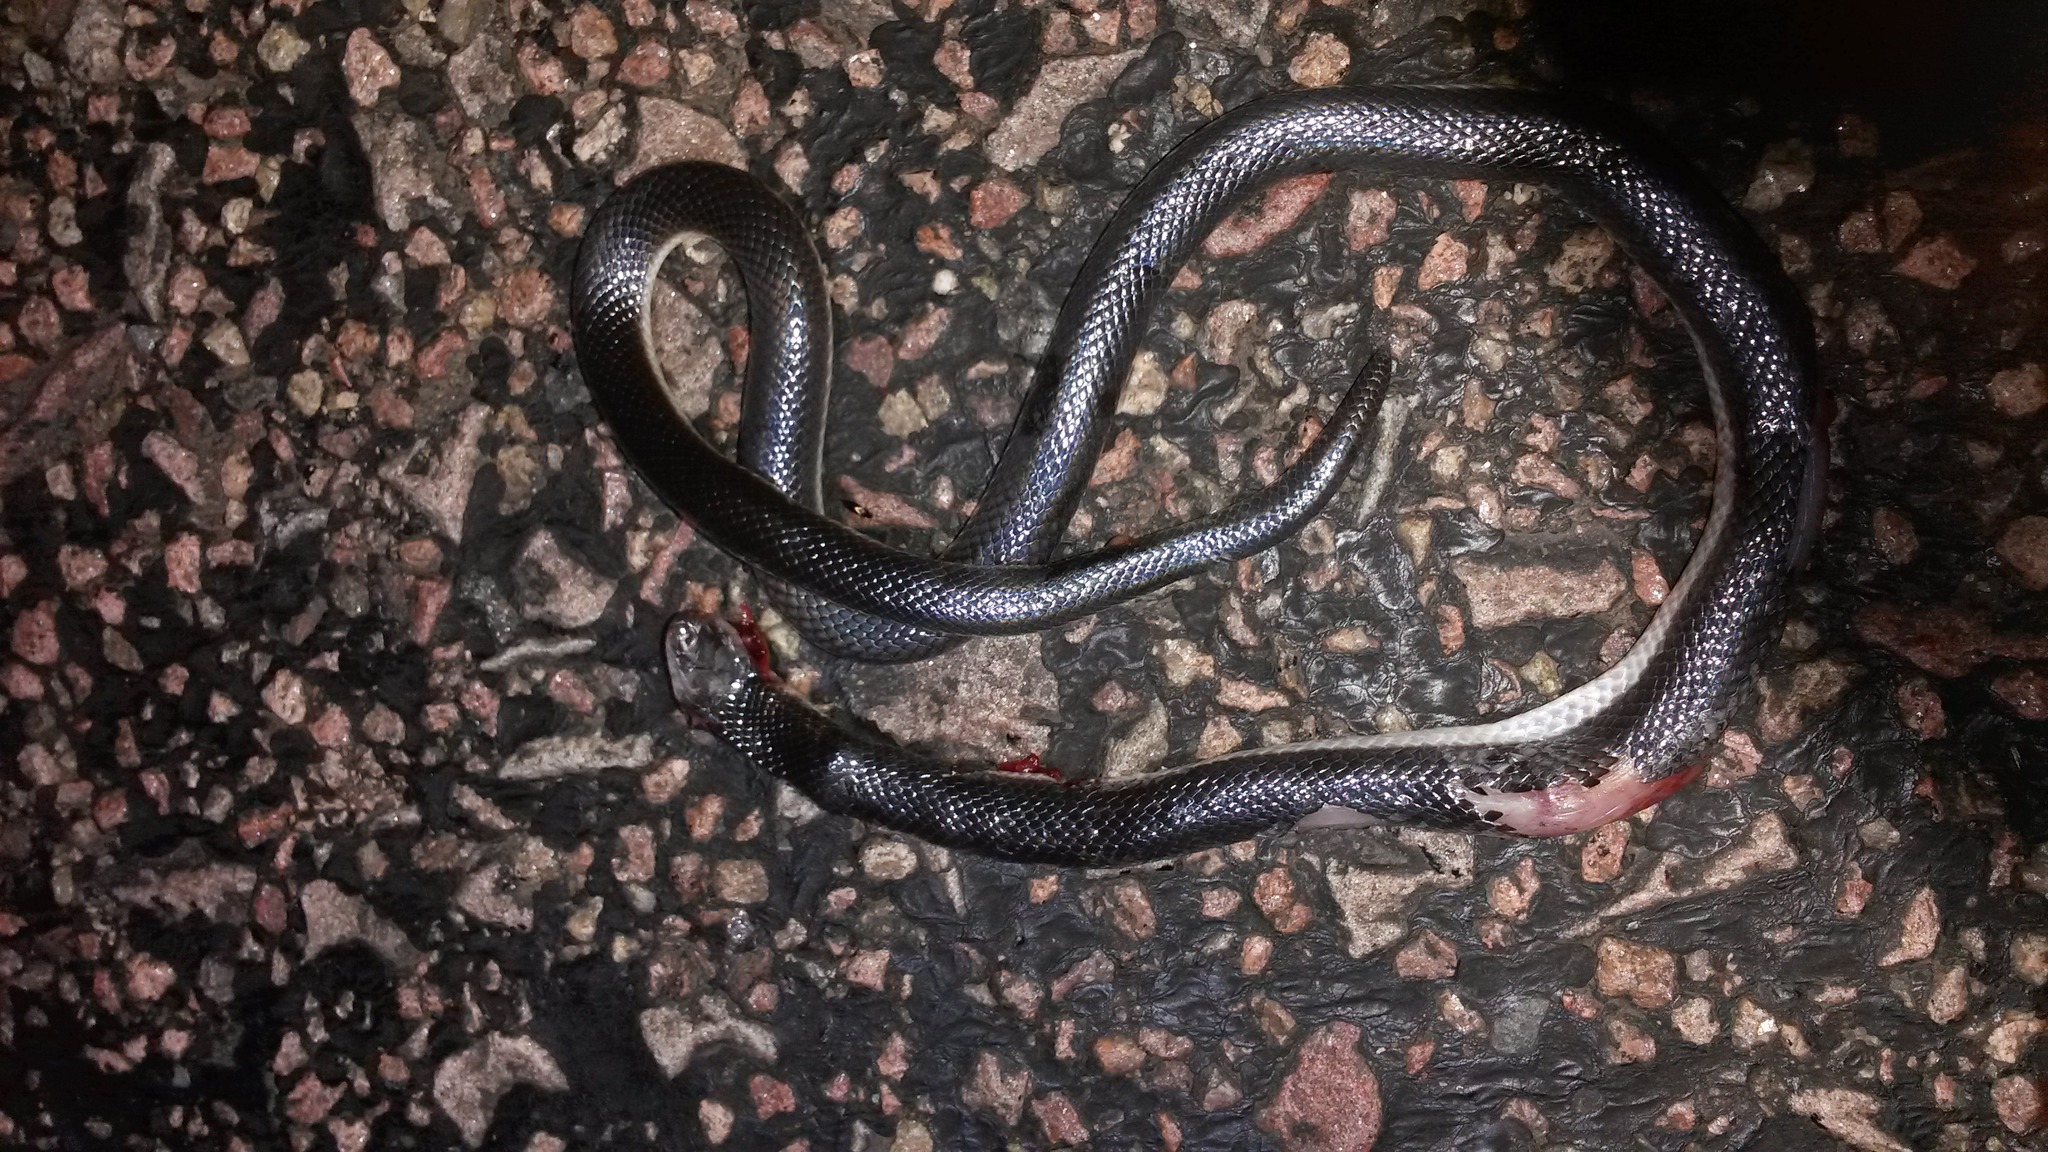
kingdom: Animalia
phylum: Chordata
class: Squamata
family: Atractaspididae
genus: Atractaspis
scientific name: Atractaspis bibronii
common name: Bibron's burrowing asp
